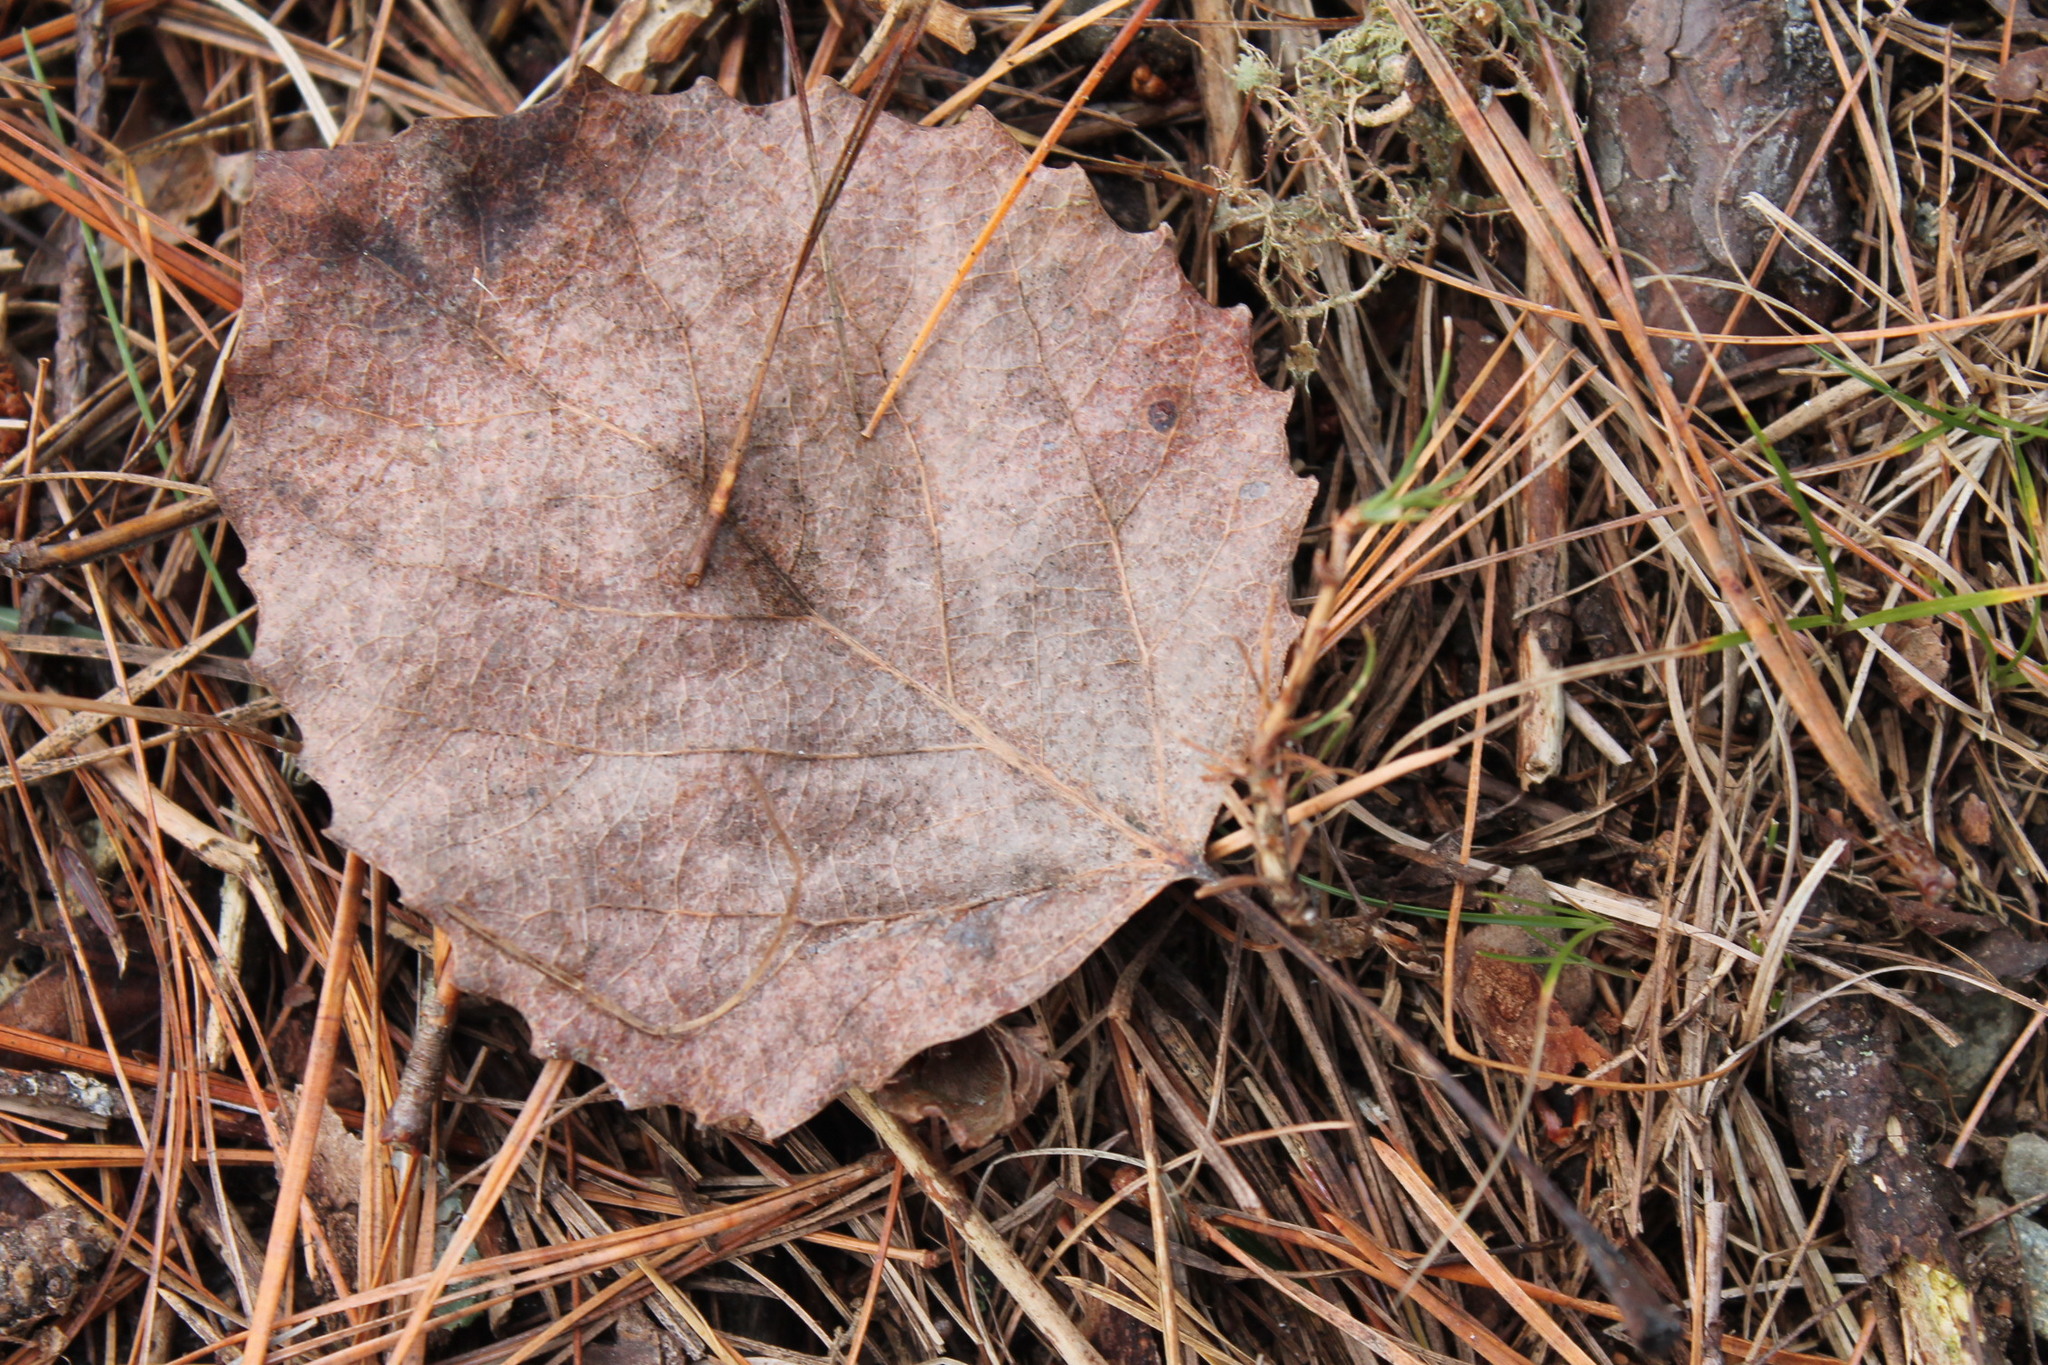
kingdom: Plantae
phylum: Tracheophyta
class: Magnoliopsida
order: Malpighiales
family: Salicaceae
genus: Populus
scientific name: Populus grandidentata
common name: Bigtooth aspen
